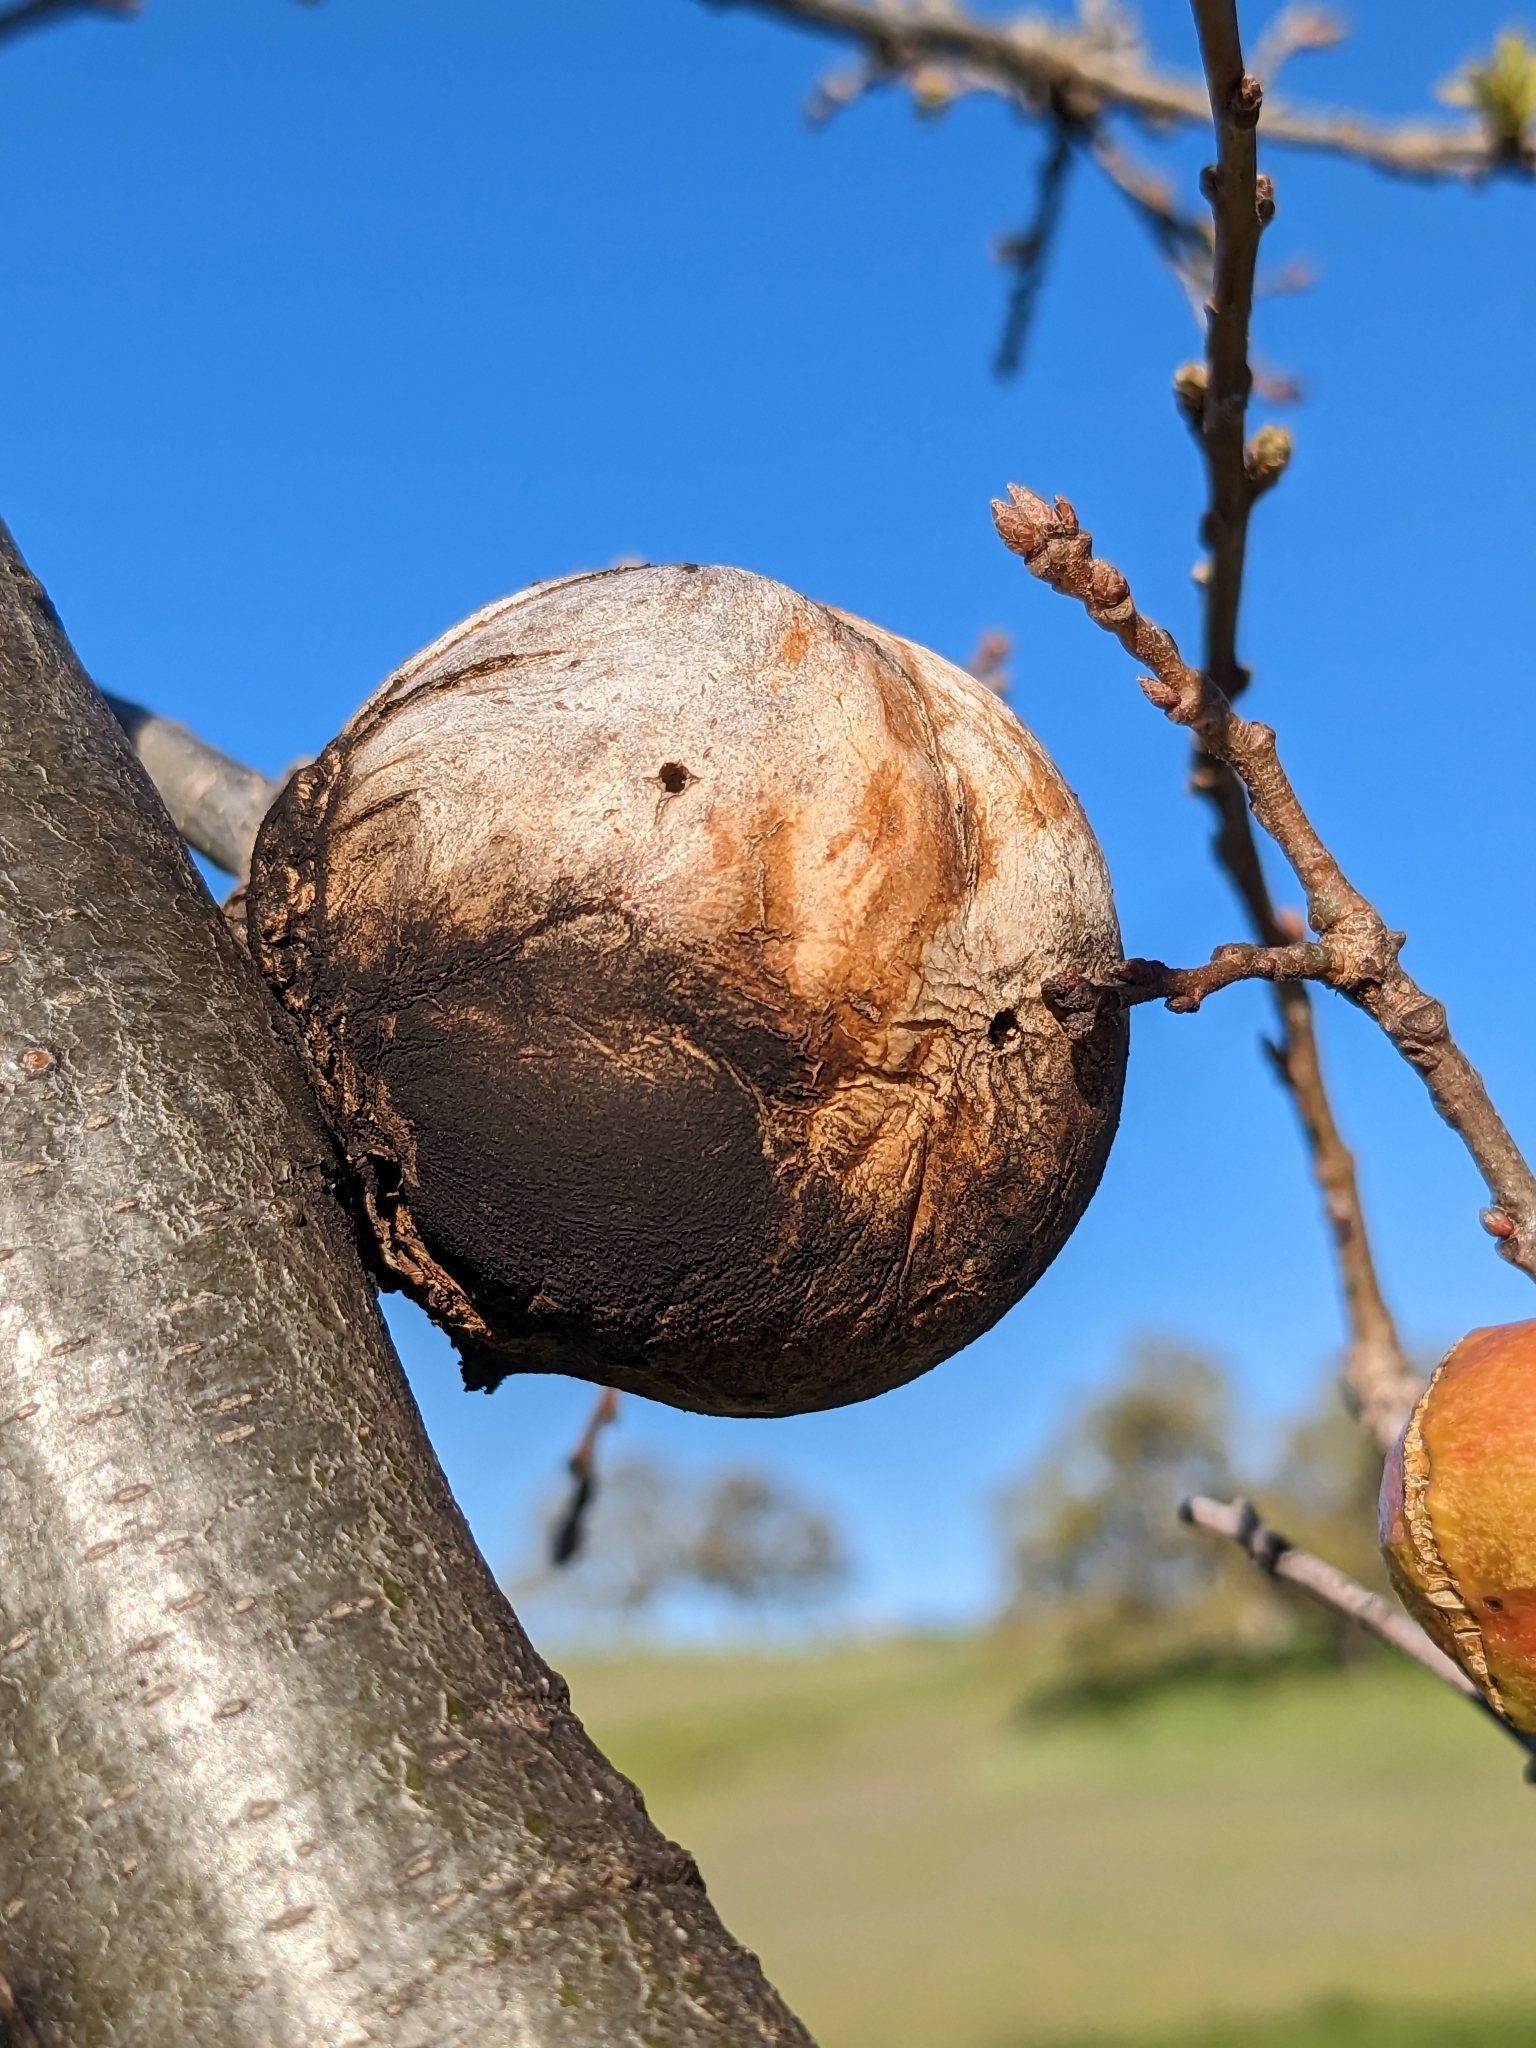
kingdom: Animalia
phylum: Arthropoda
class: Insecta
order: Hymenoptera
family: Cynipidae
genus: Andricus
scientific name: Andricus quercuscalifornicus
